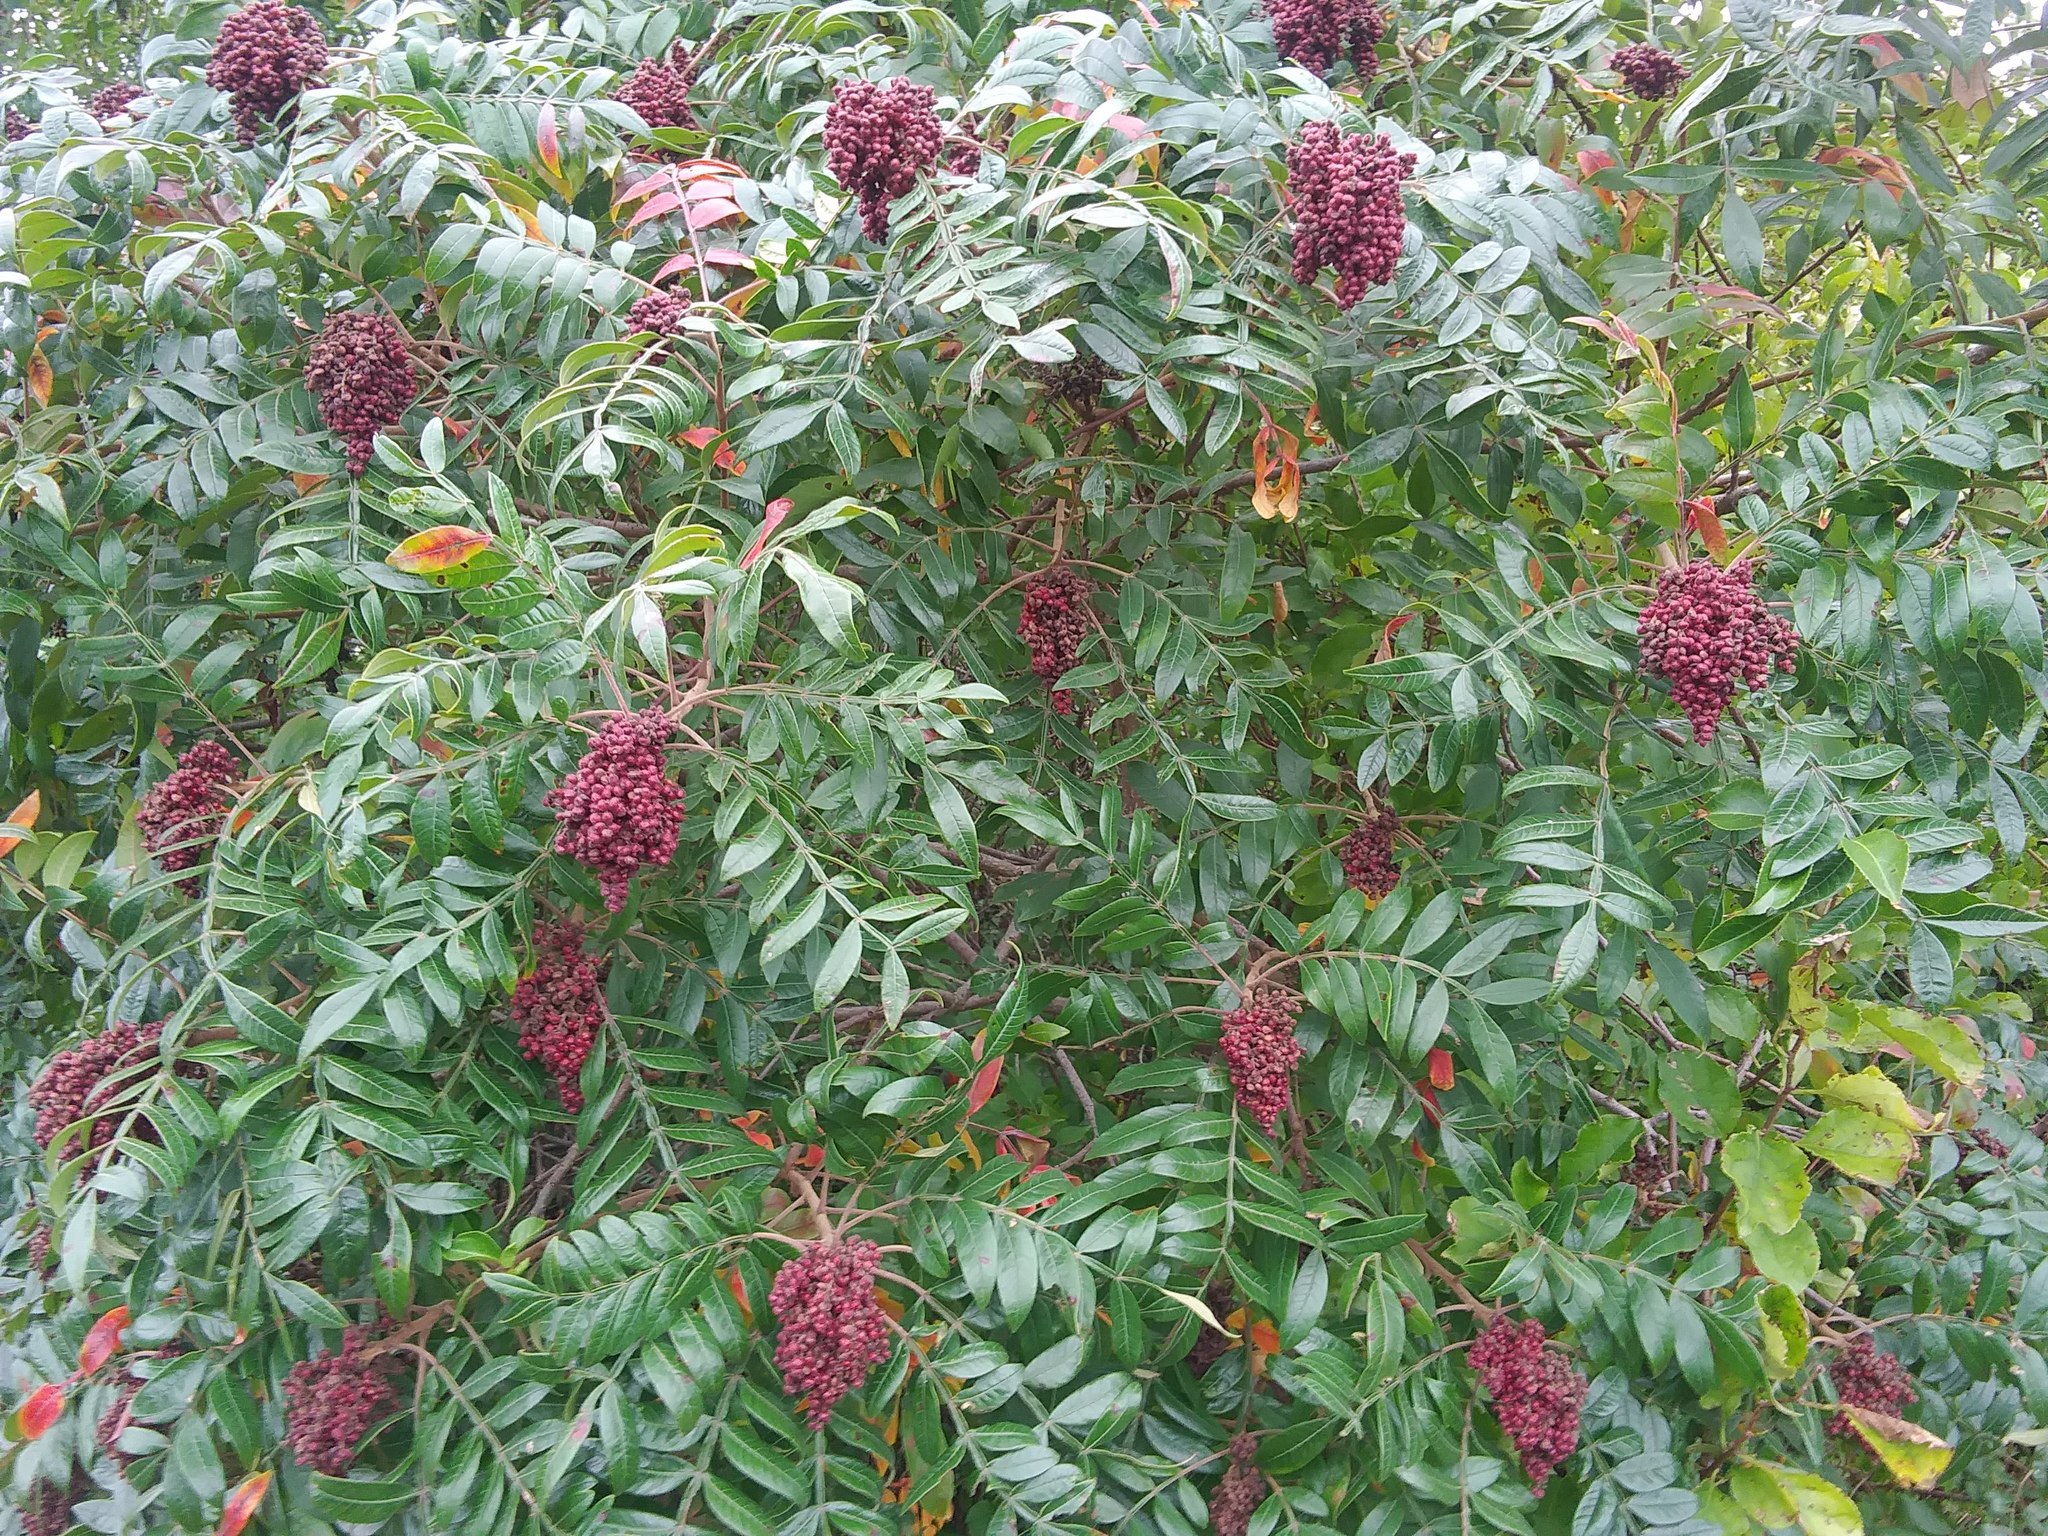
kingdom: Plantae
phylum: Tracheophyta
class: Magnoliopsida
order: Sapindales
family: Anacardiaceae
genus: Rhus
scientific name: Rhus copallina
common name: Shining sumac
